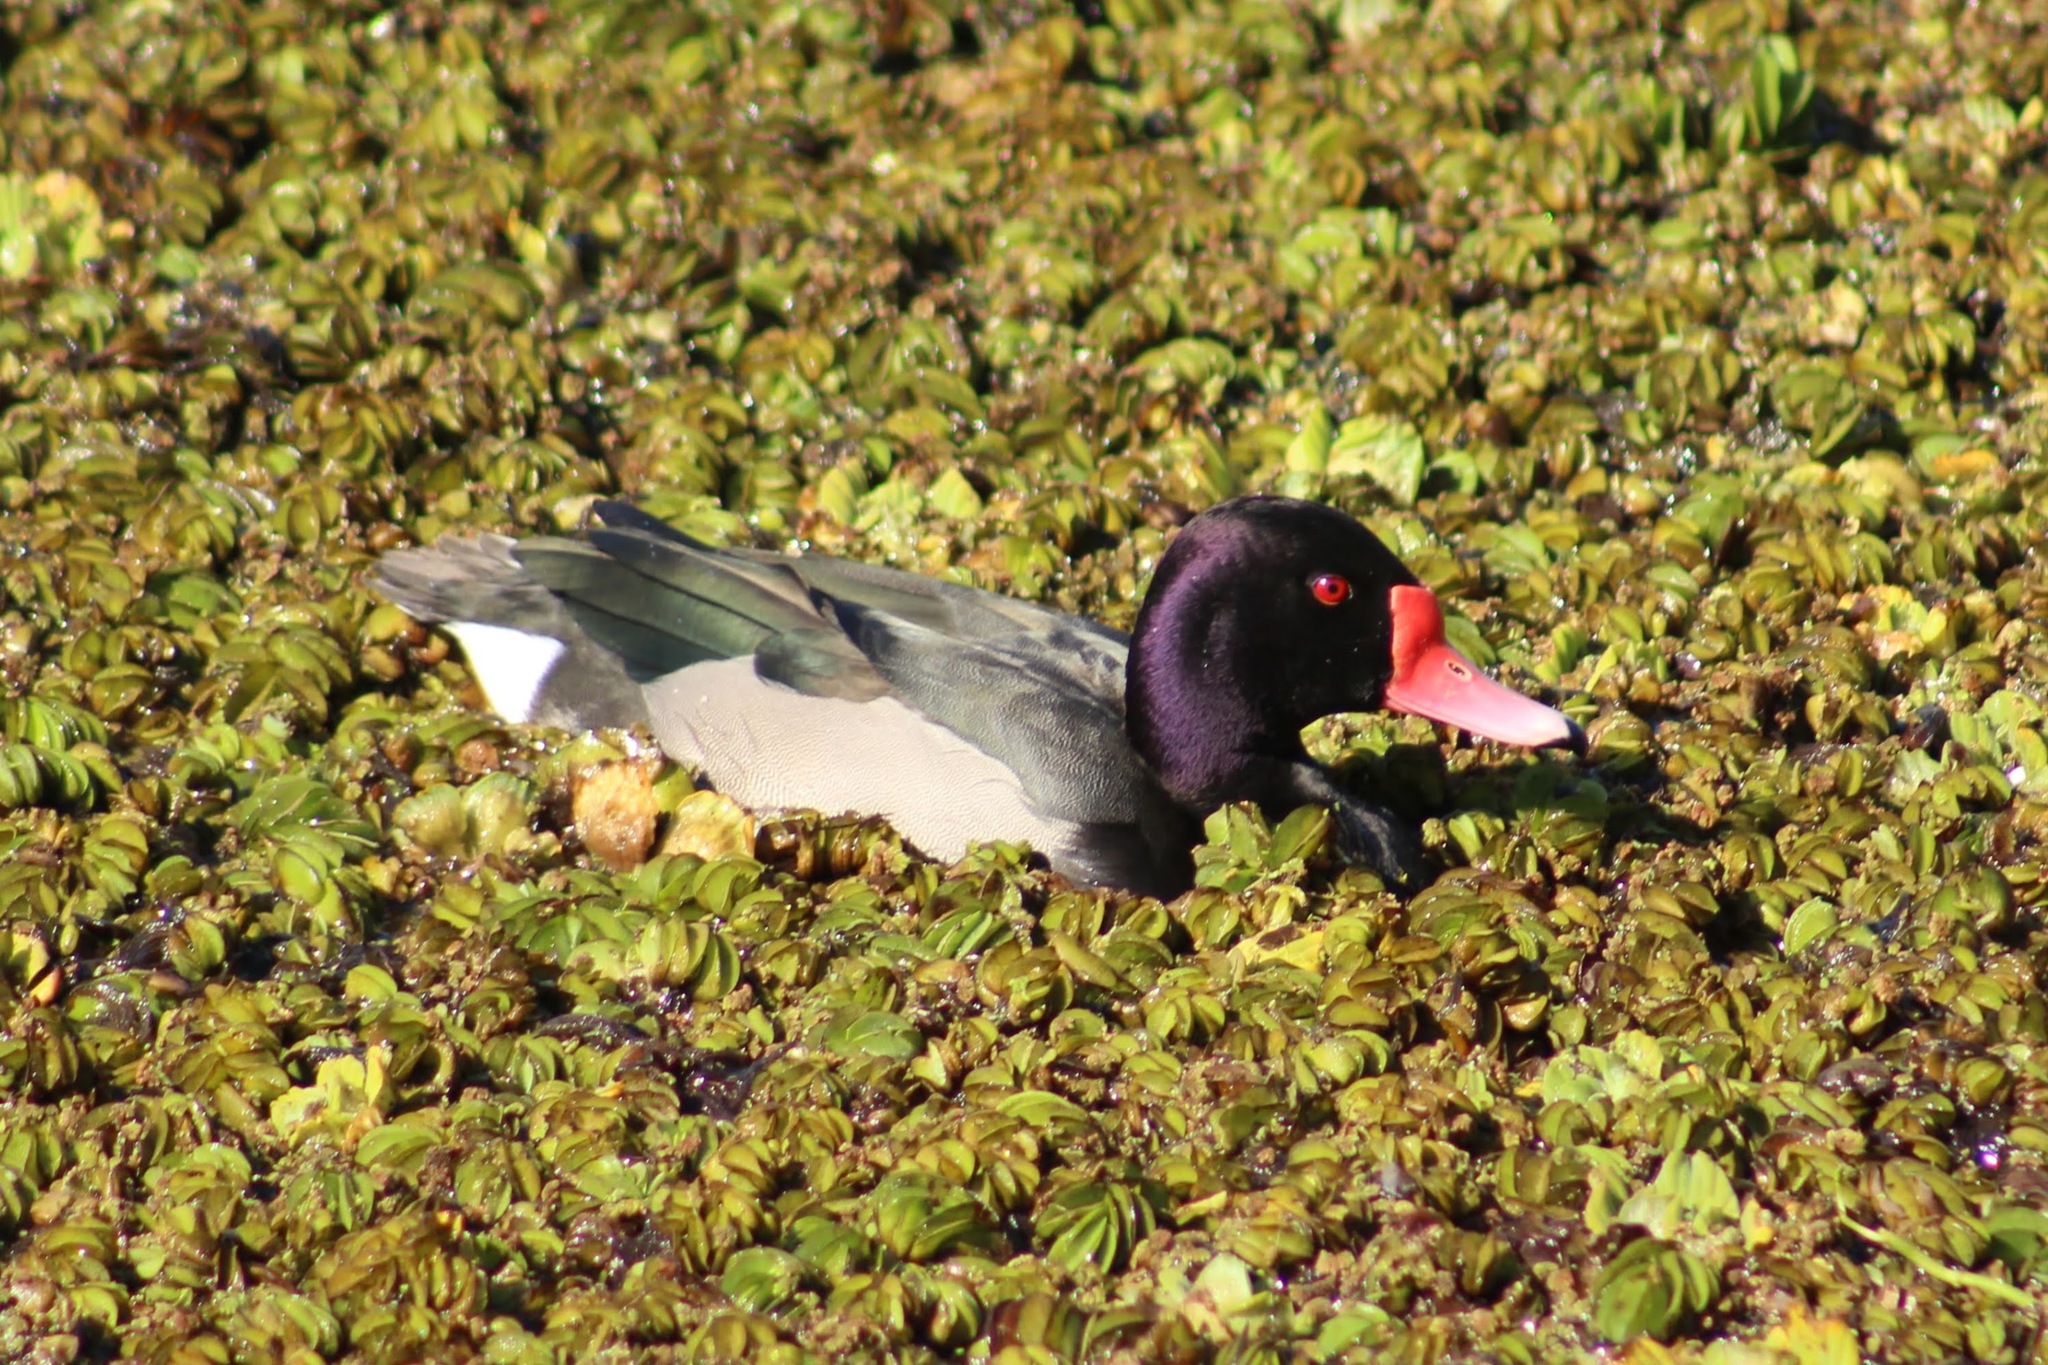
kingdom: Animalia
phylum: Chordata
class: Aves
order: Anseriformes
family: Anatidae
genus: Netta
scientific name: Netta peposaca
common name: Rosy-billed pochard
